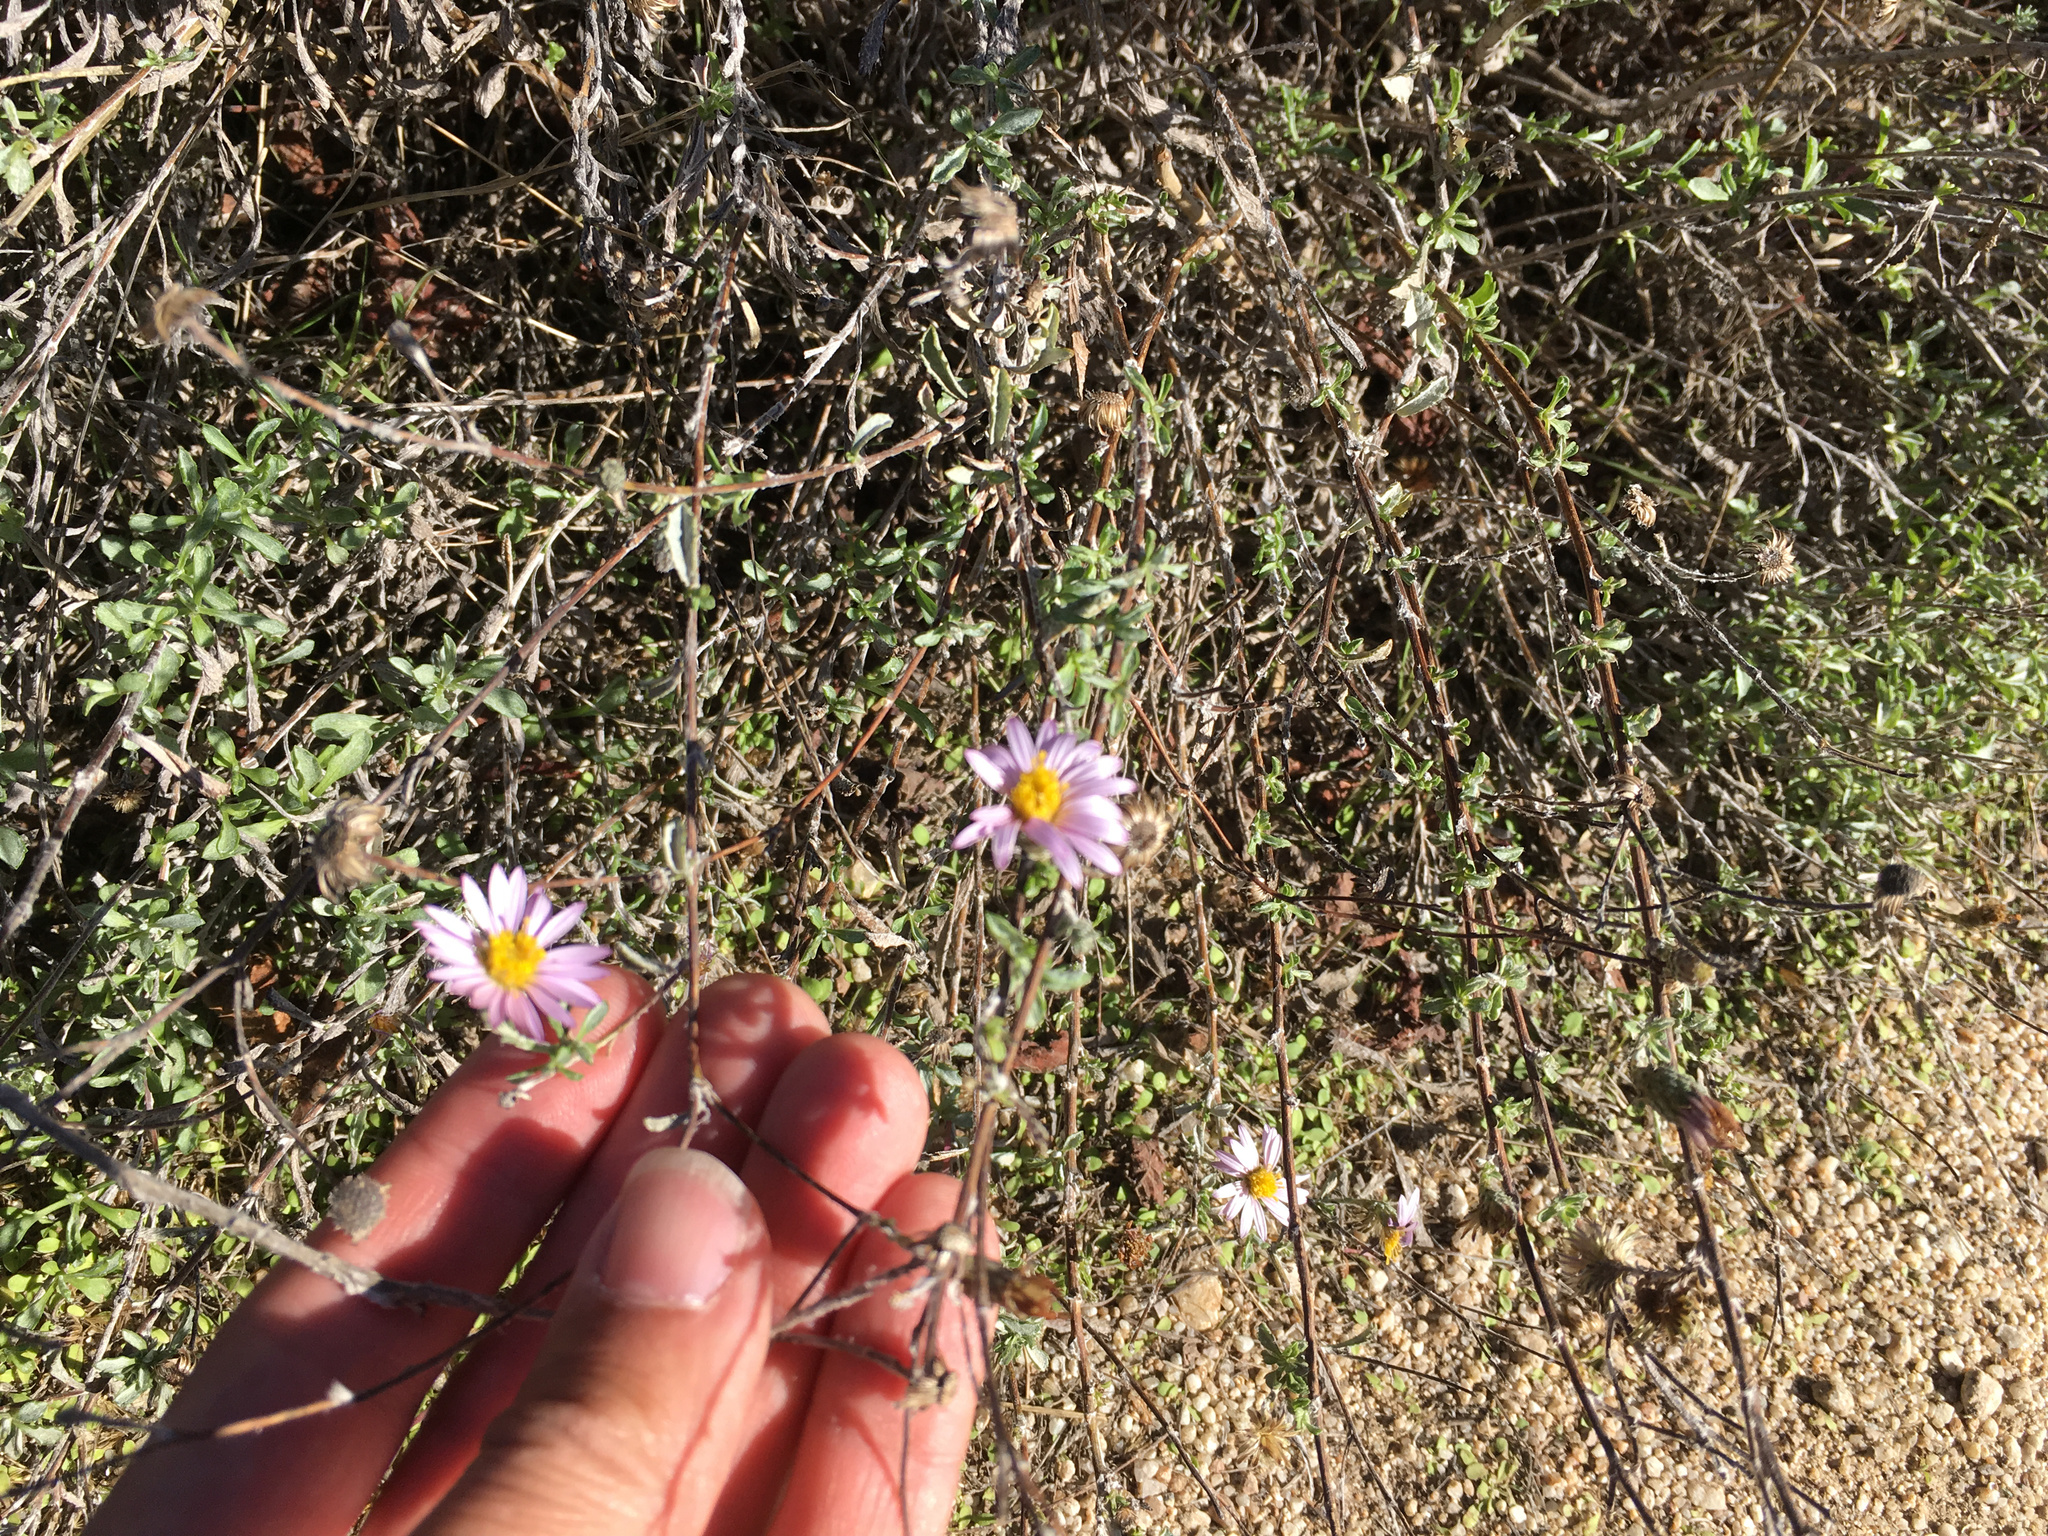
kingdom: Plantae
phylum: Tracheophyta
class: Magnoliopsida
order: Asterales
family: Asteraceae
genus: Corethrogyne
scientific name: Corethrogyne filaginifolia
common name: Sand-aster
